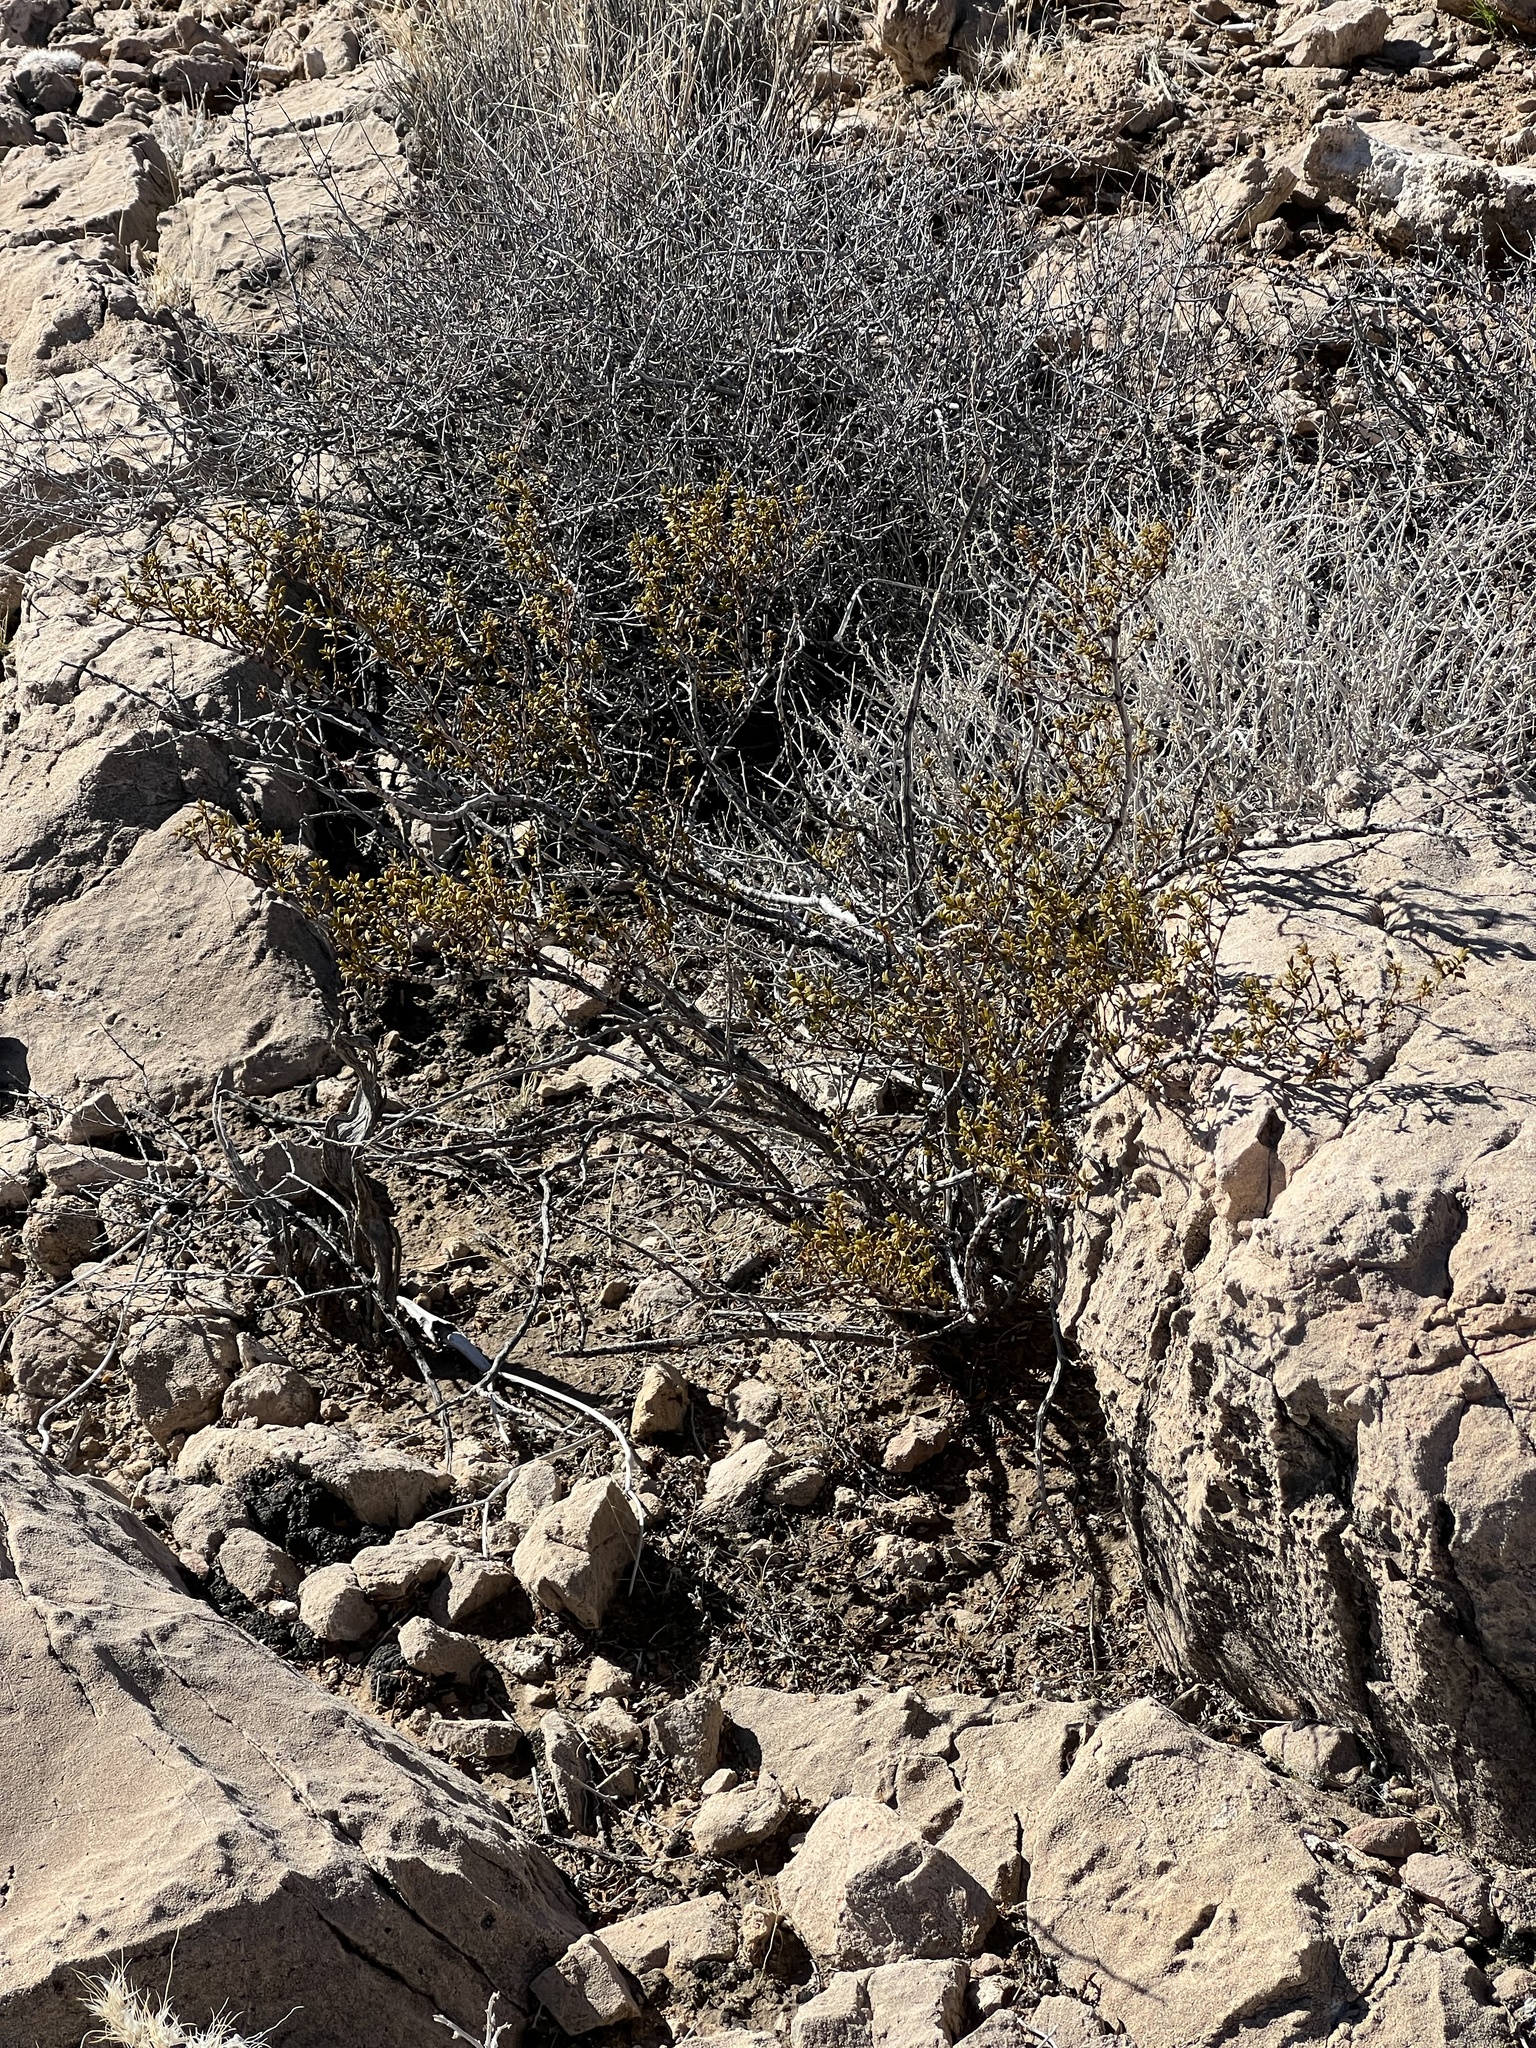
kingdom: Plantae
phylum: Tracheophyta
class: Magnoliopsida
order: Zygophyllales
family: Zygophyllaceae
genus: Larrea
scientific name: Larrea tridentata
